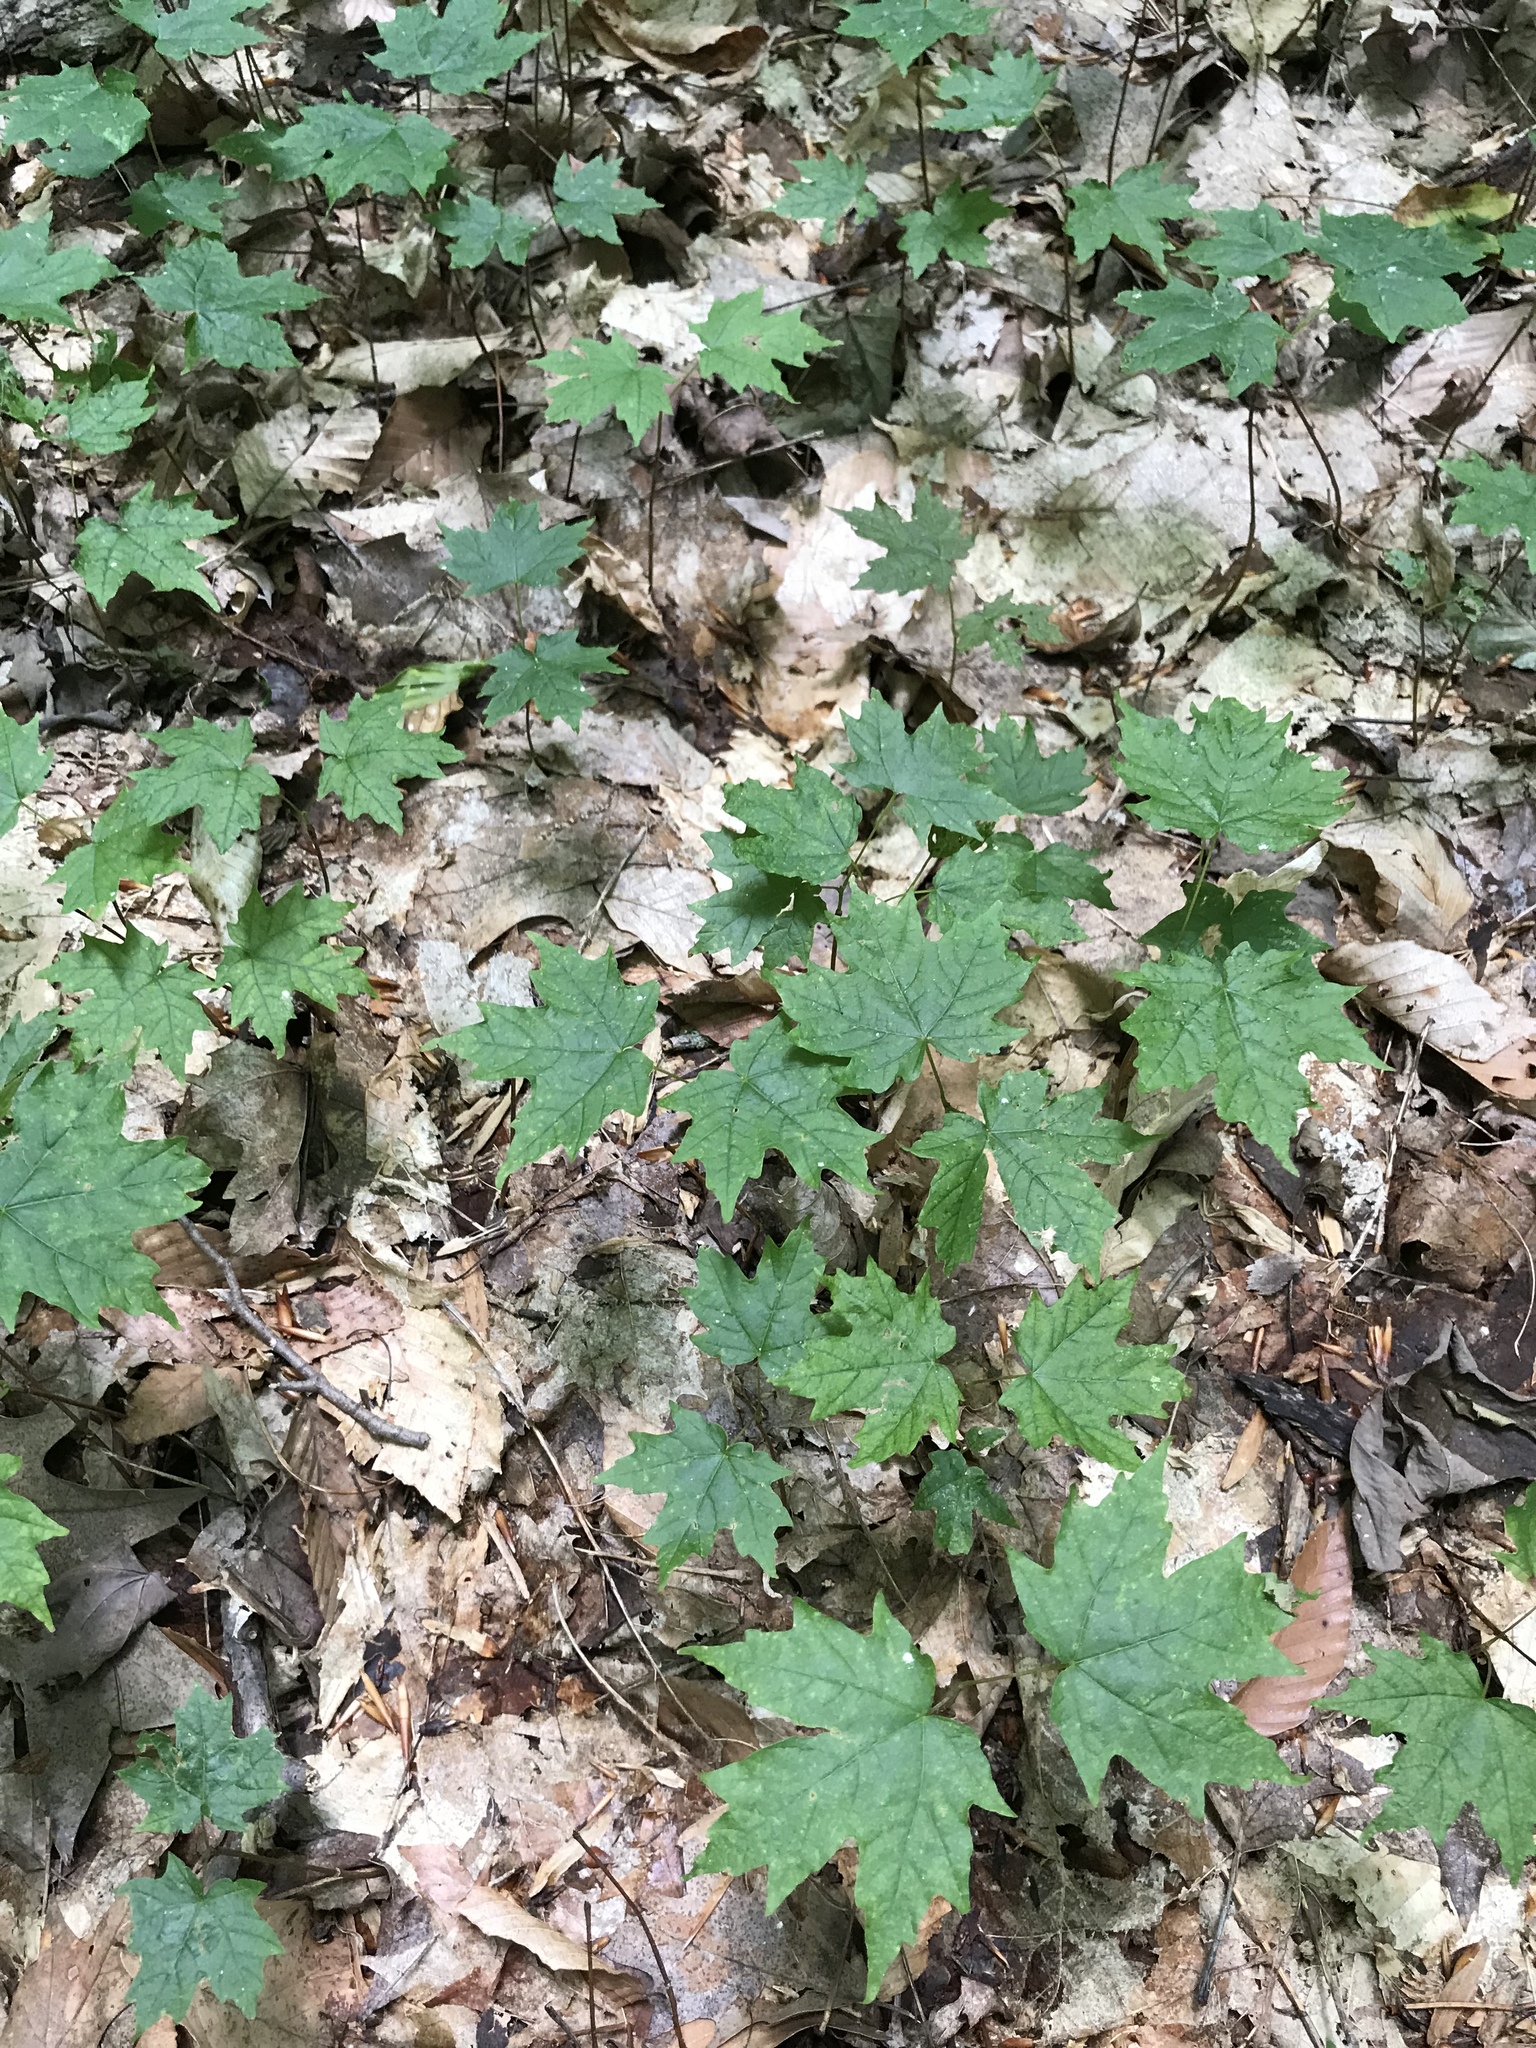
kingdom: Plantae
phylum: Tracheophyta
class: Magnoliopsida
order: Sapindales
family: Sapindaceae
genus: Acer
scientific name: Acer saccharum
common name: Sugar maple
